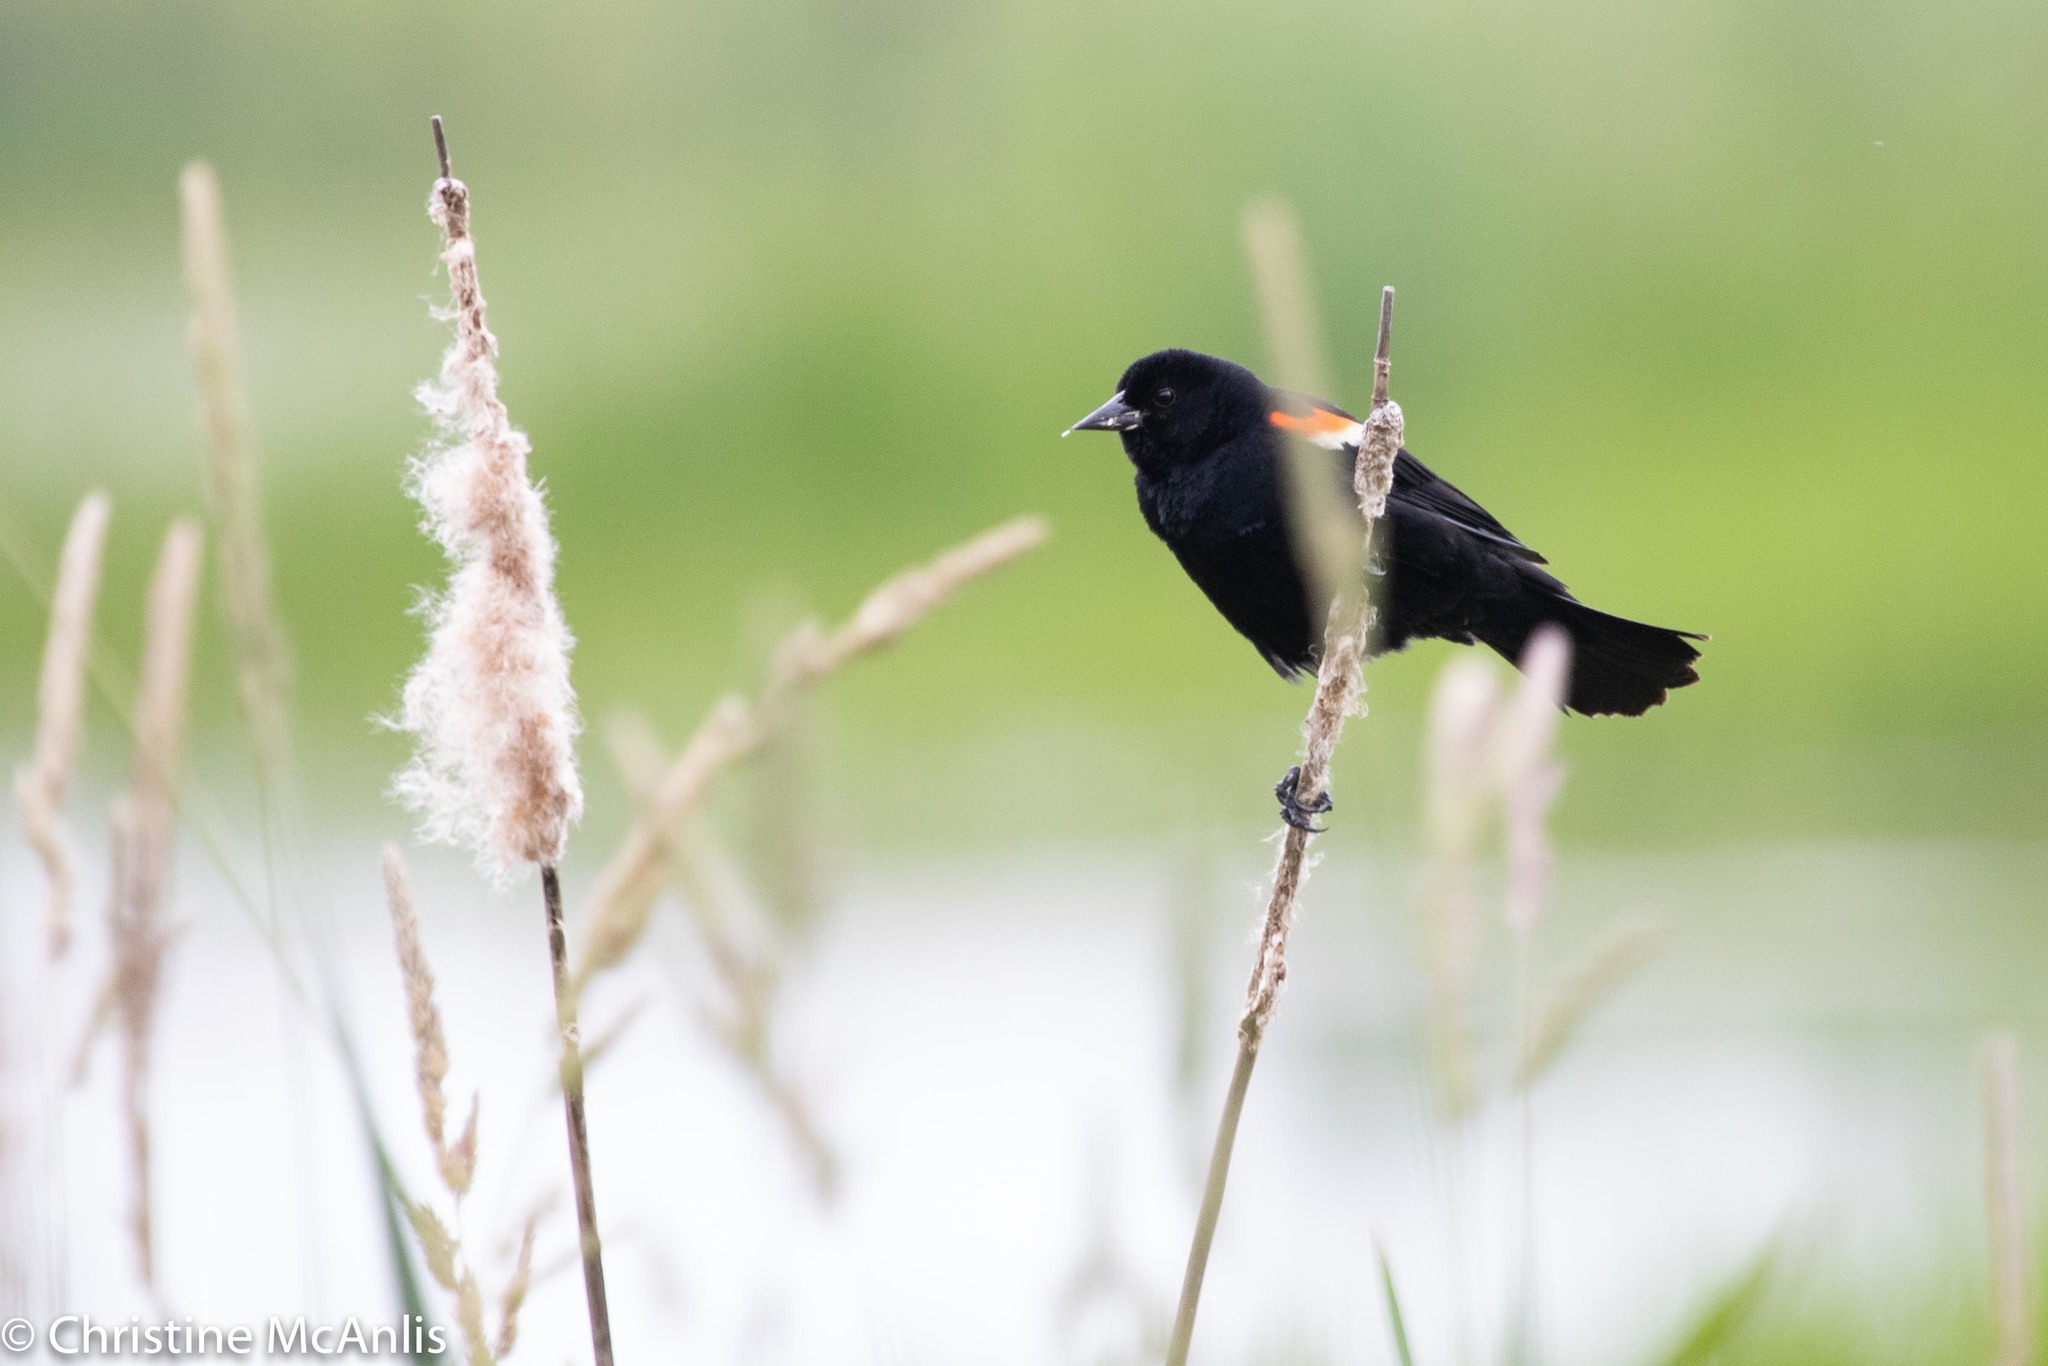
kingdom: Animalia
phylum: Chordata
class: Aves
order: Passeriformes
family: Icteridae
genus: Agelaius
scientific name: Agelaius phoeniceus
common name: Red-winged blackbird
